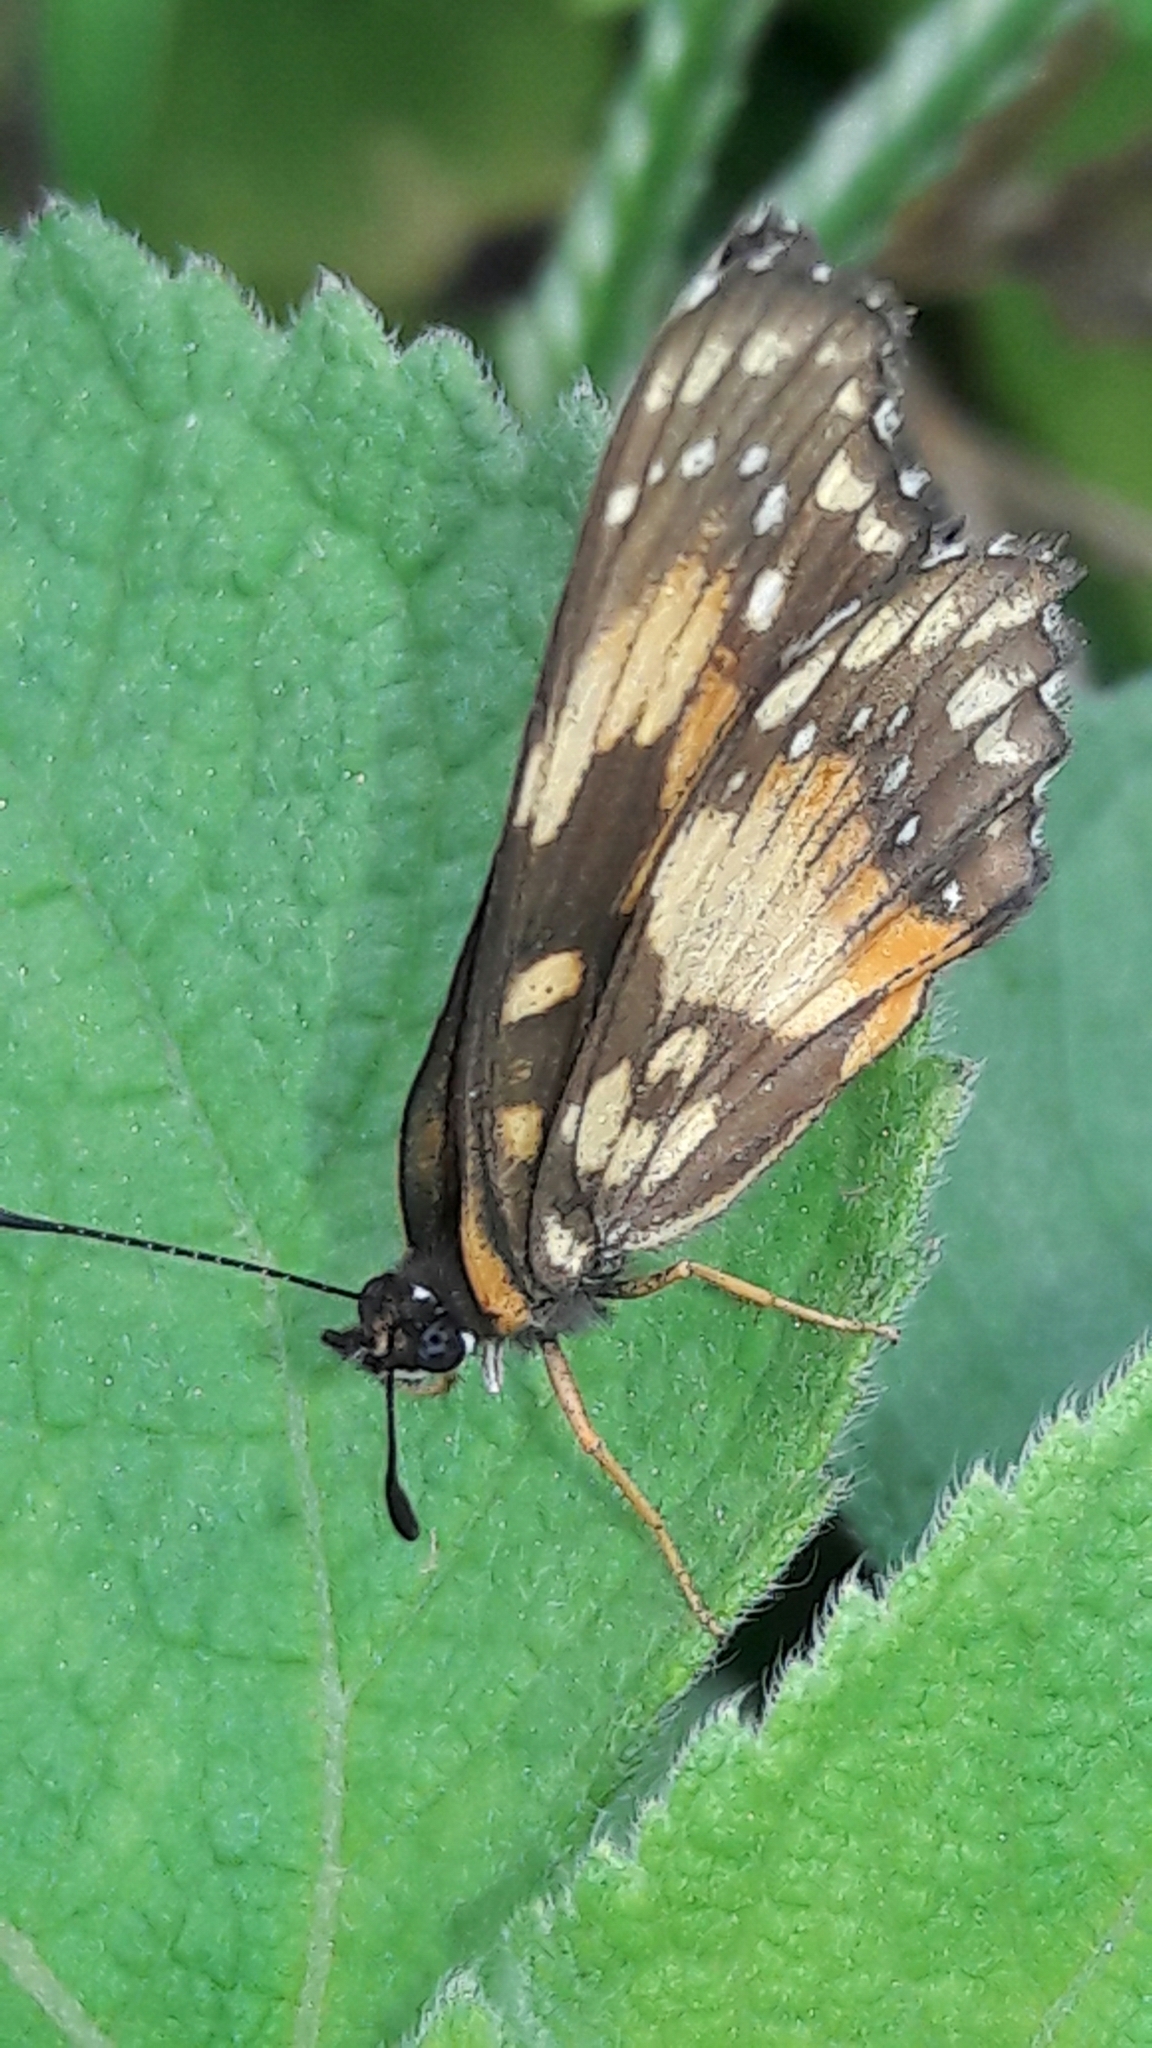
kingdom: Animalia
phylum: Arthropoda
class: Insecta
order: Lepidoptera
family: Nymphalidae
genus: Chlosyne
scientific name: Chlosyne lacinia
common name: Bordered patch
